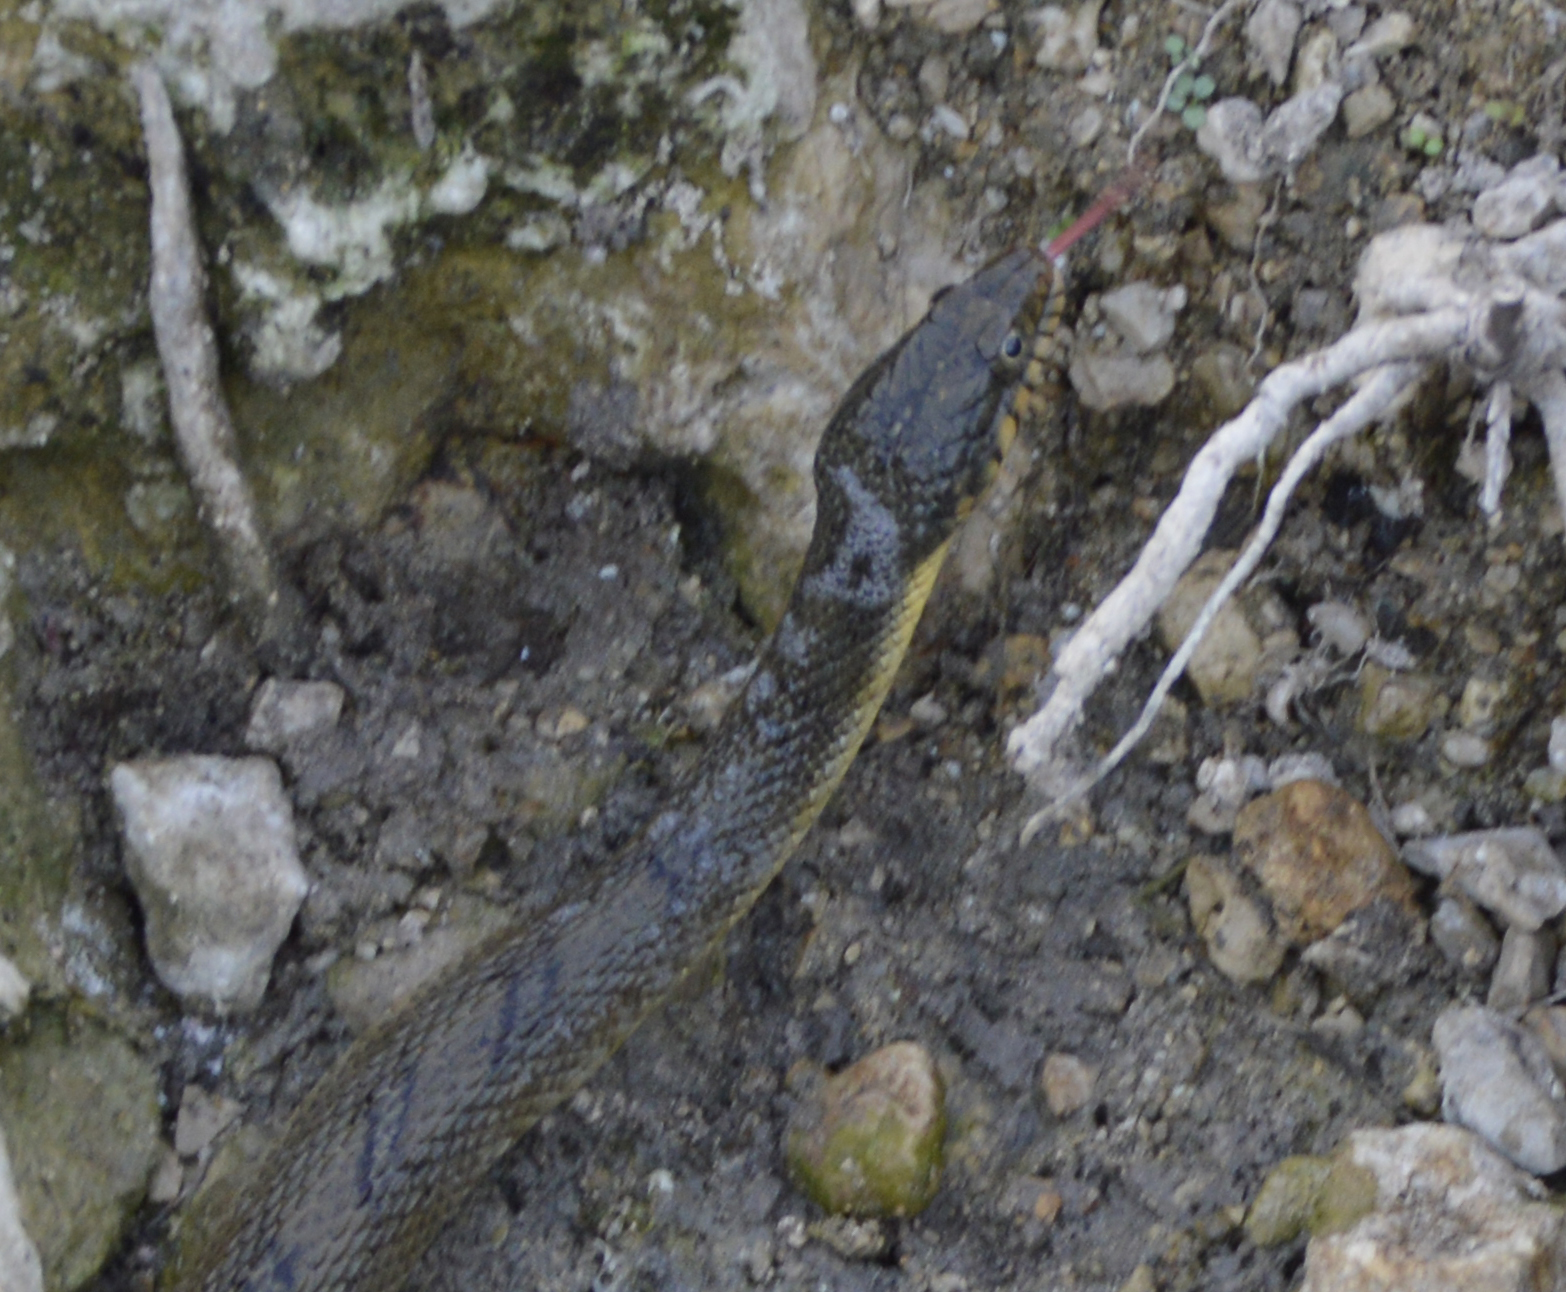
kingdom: Animalia
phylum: Chordata
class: Squamata
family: Colubridae
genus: Nerodia
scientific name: Nerodia erythrogaster
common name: Plainbelly water snake
